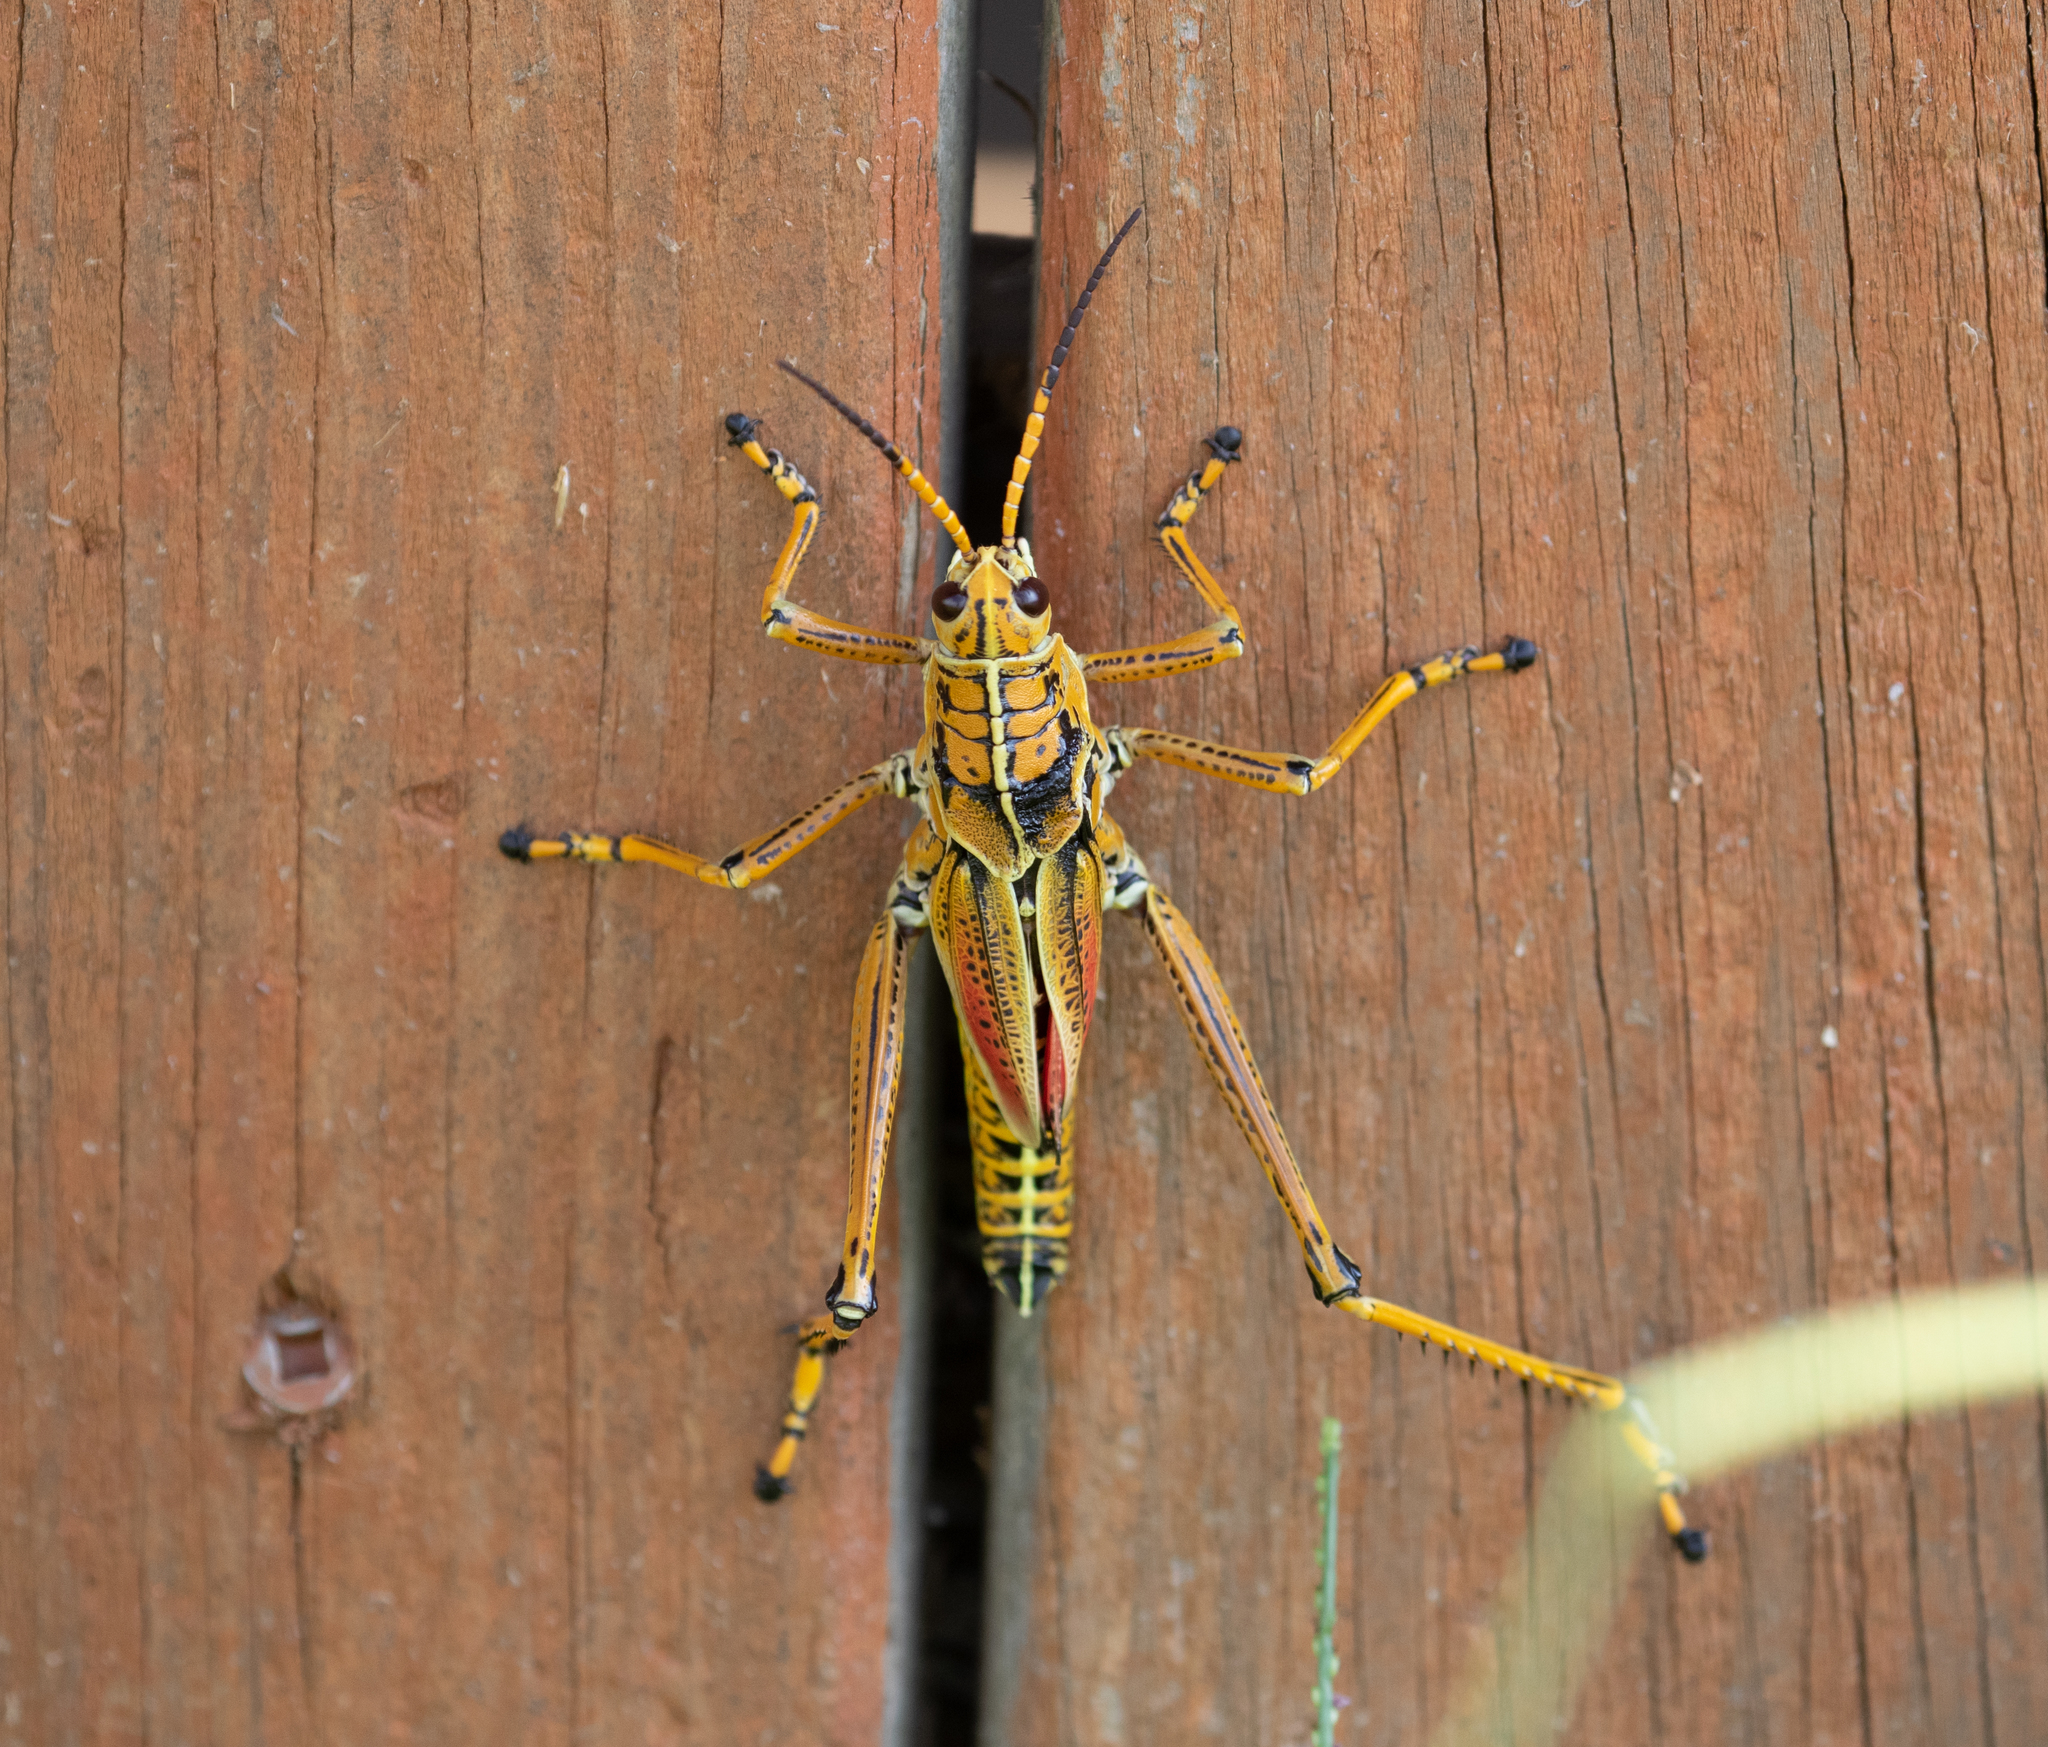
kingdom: Animalia
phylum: Arthropoda
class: Insecta
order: Orthoptera
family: Romaleidae
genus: Romalea
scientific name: Romalea microptera
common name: Eastern lubber grasshopper
